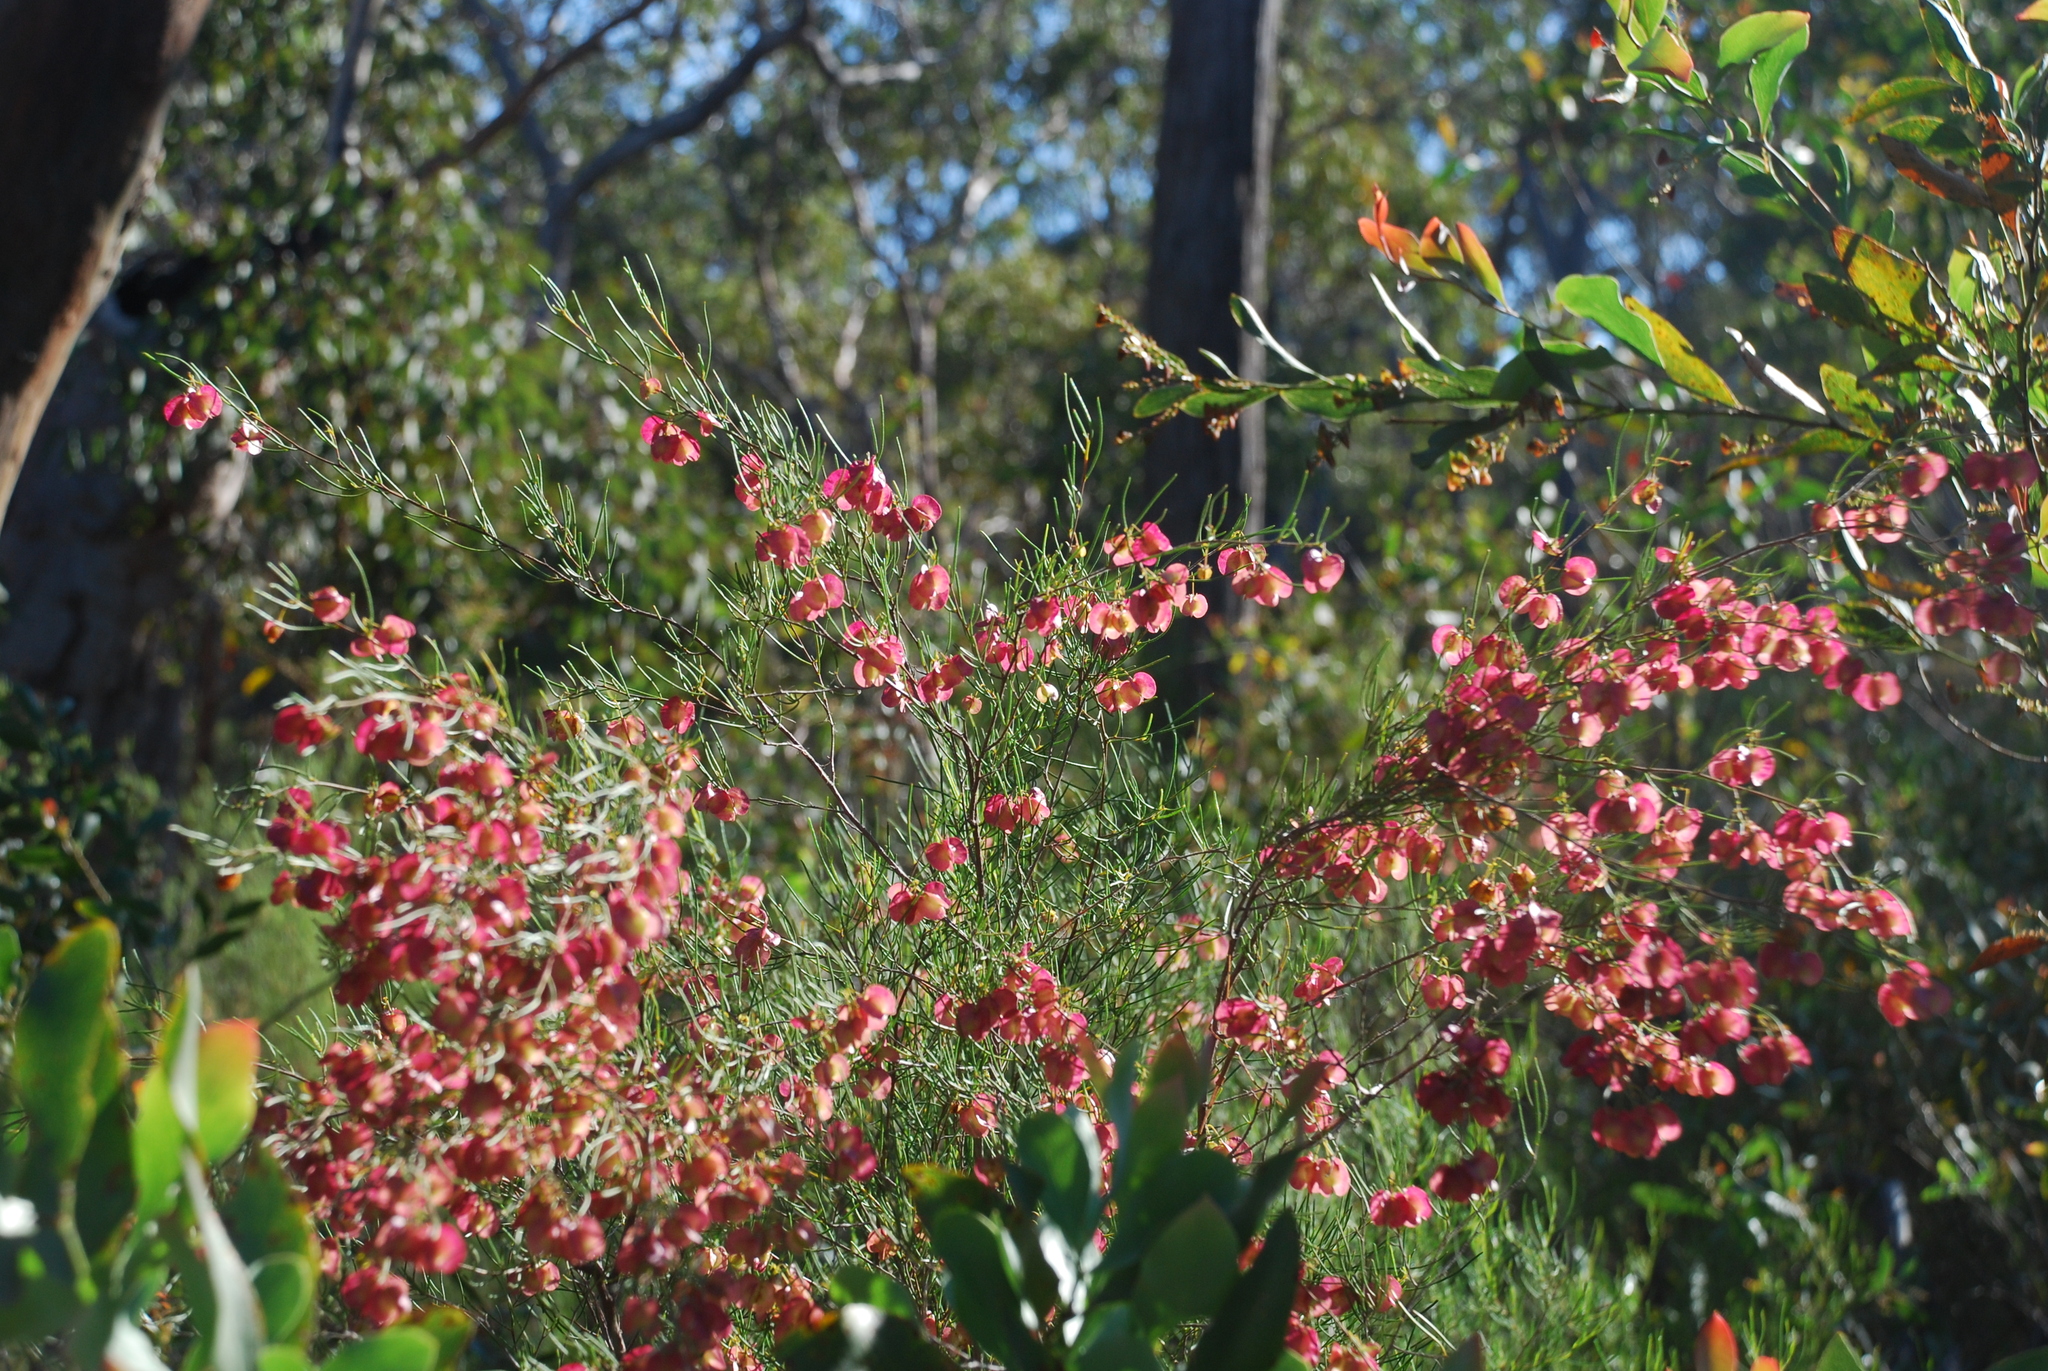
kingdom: Plantae
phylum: Tracheophyta
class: Magnoliopsida
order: Sapindales
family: Sapindaceae
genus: Dodonaea
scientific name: Dodonaea viscosa
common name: Hopbush
